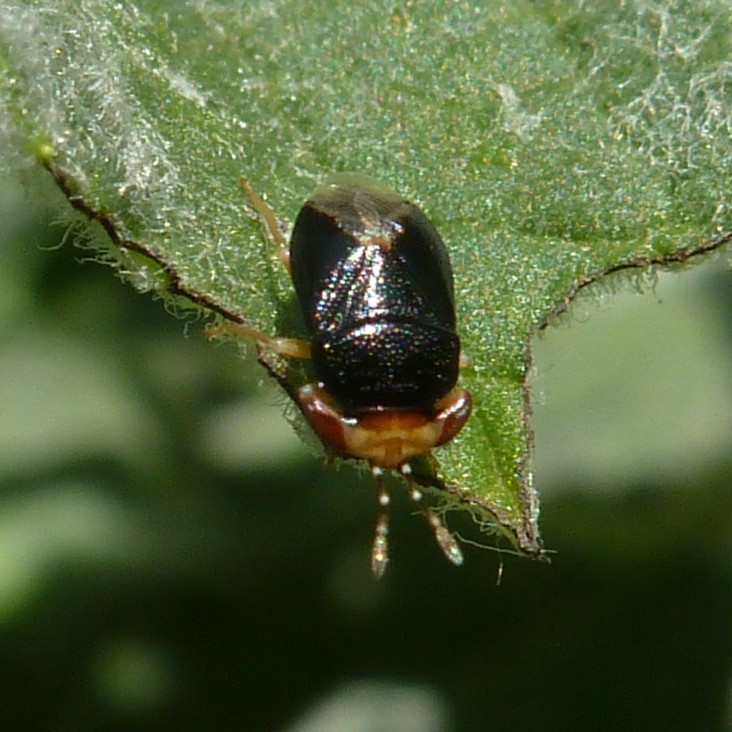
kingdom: Animalia
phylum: Arthropoda
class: Insecta
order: Hemiptera
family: Geocoridae
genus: Geocoris
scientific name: Geocoris erythrocephala
